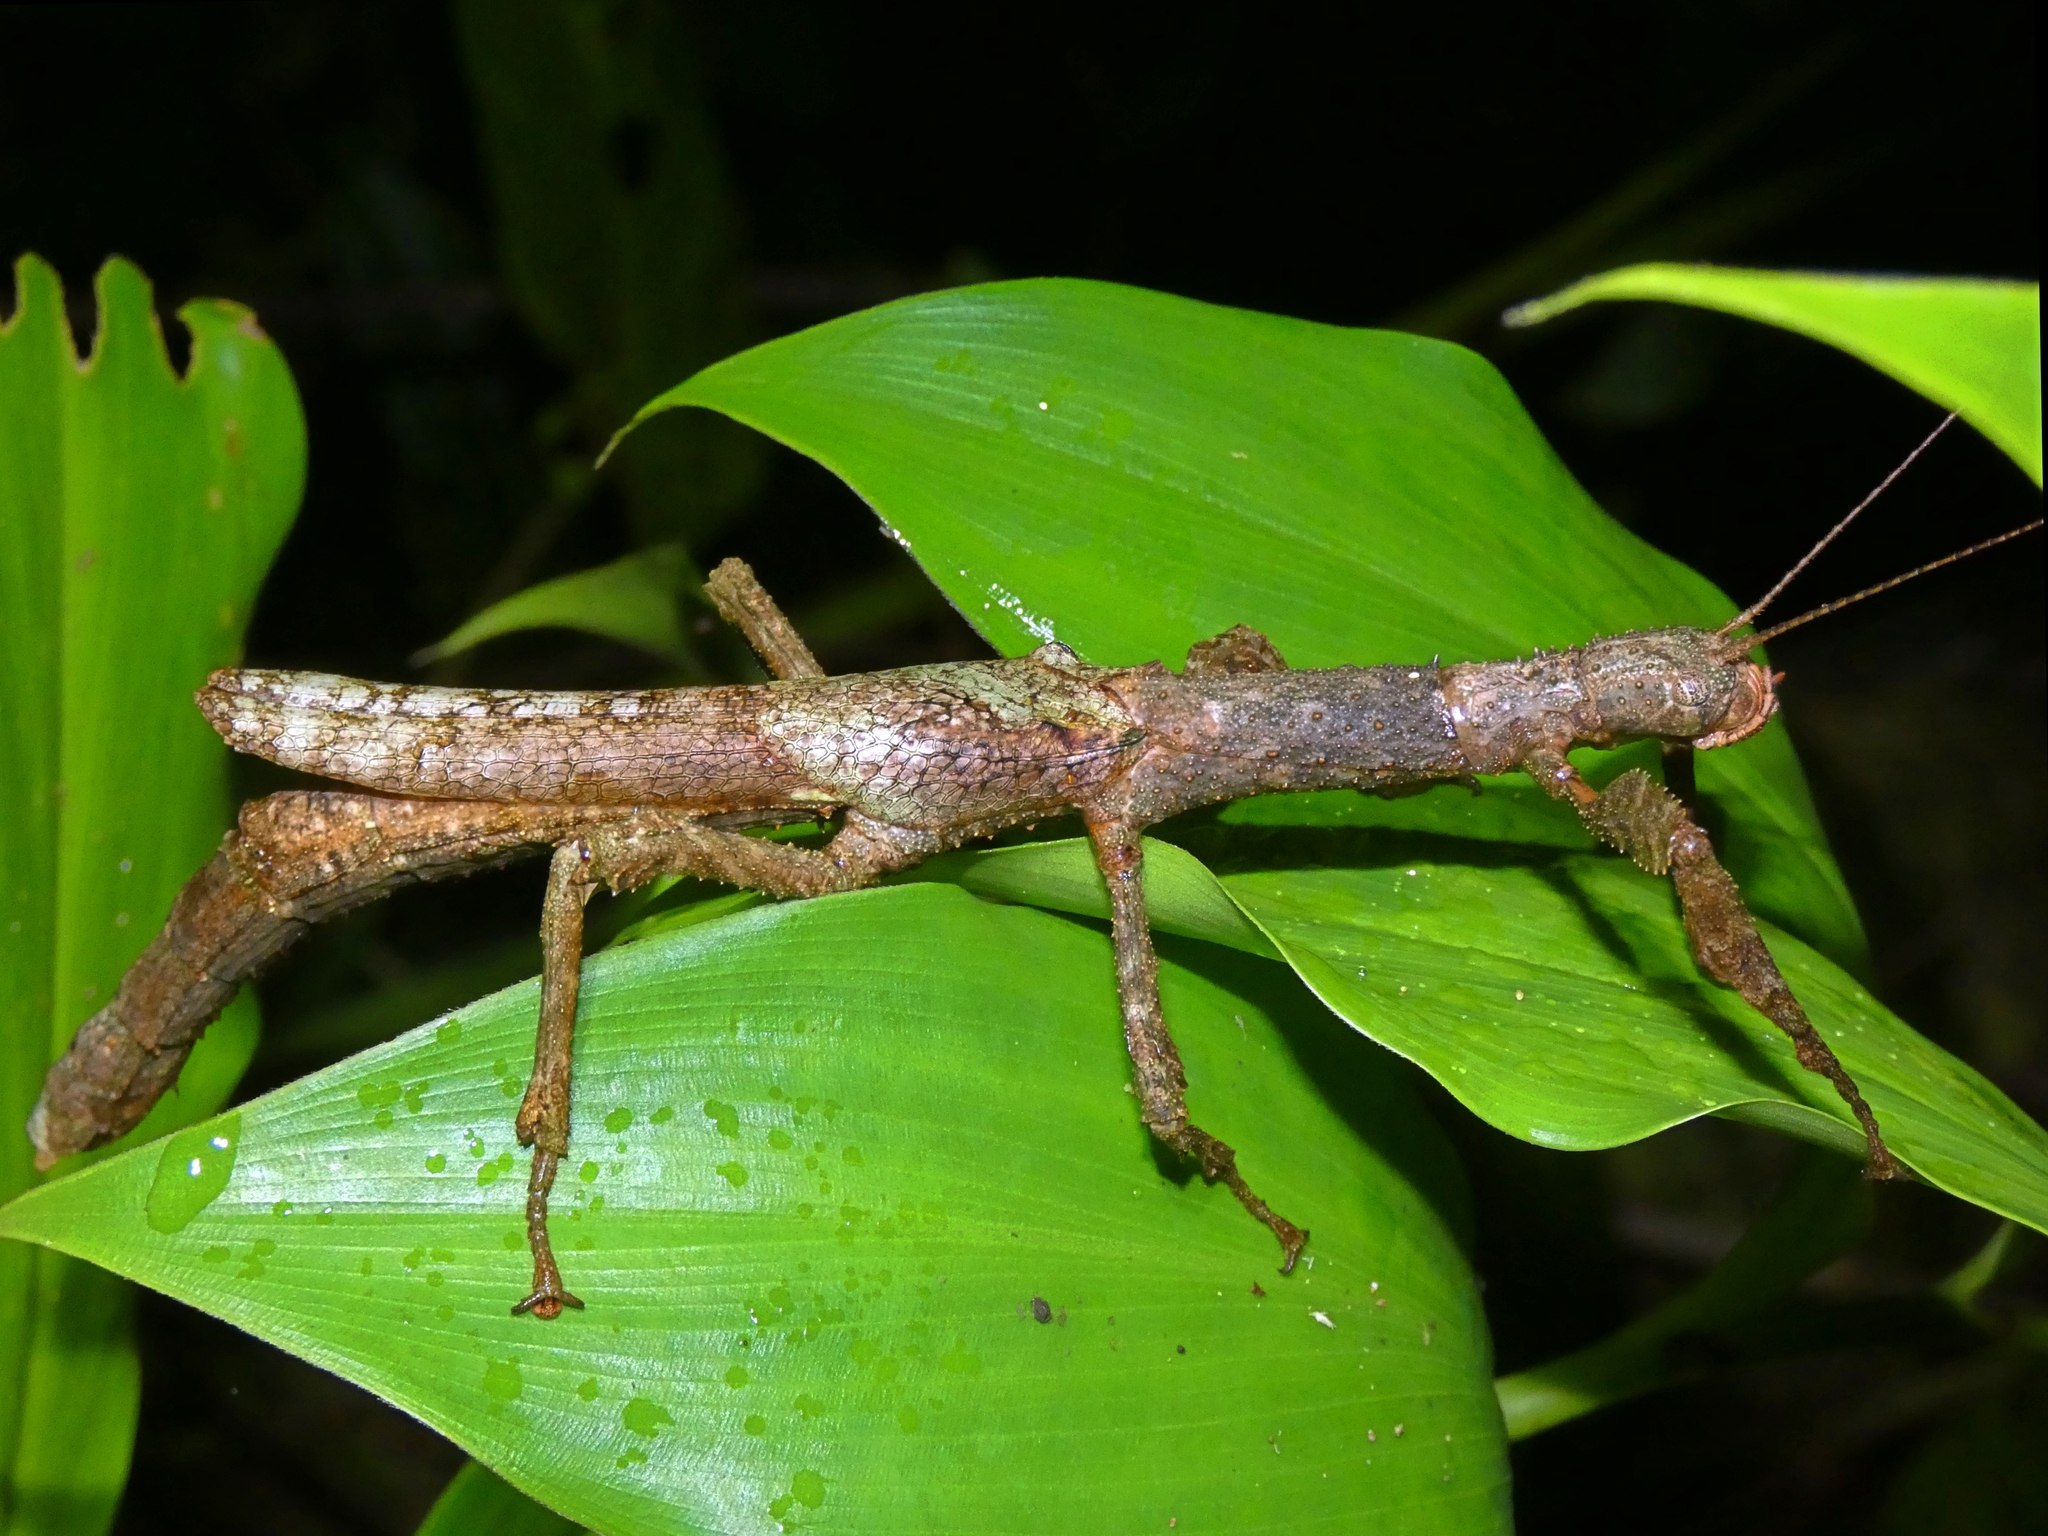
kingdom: Animalia
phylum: Arthropoda
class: Insecta
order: Phasmida
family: Phasmatidae
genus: Cigarrophasma
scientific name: Cigarrophasma tessellatum
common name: Cigar stick insect
